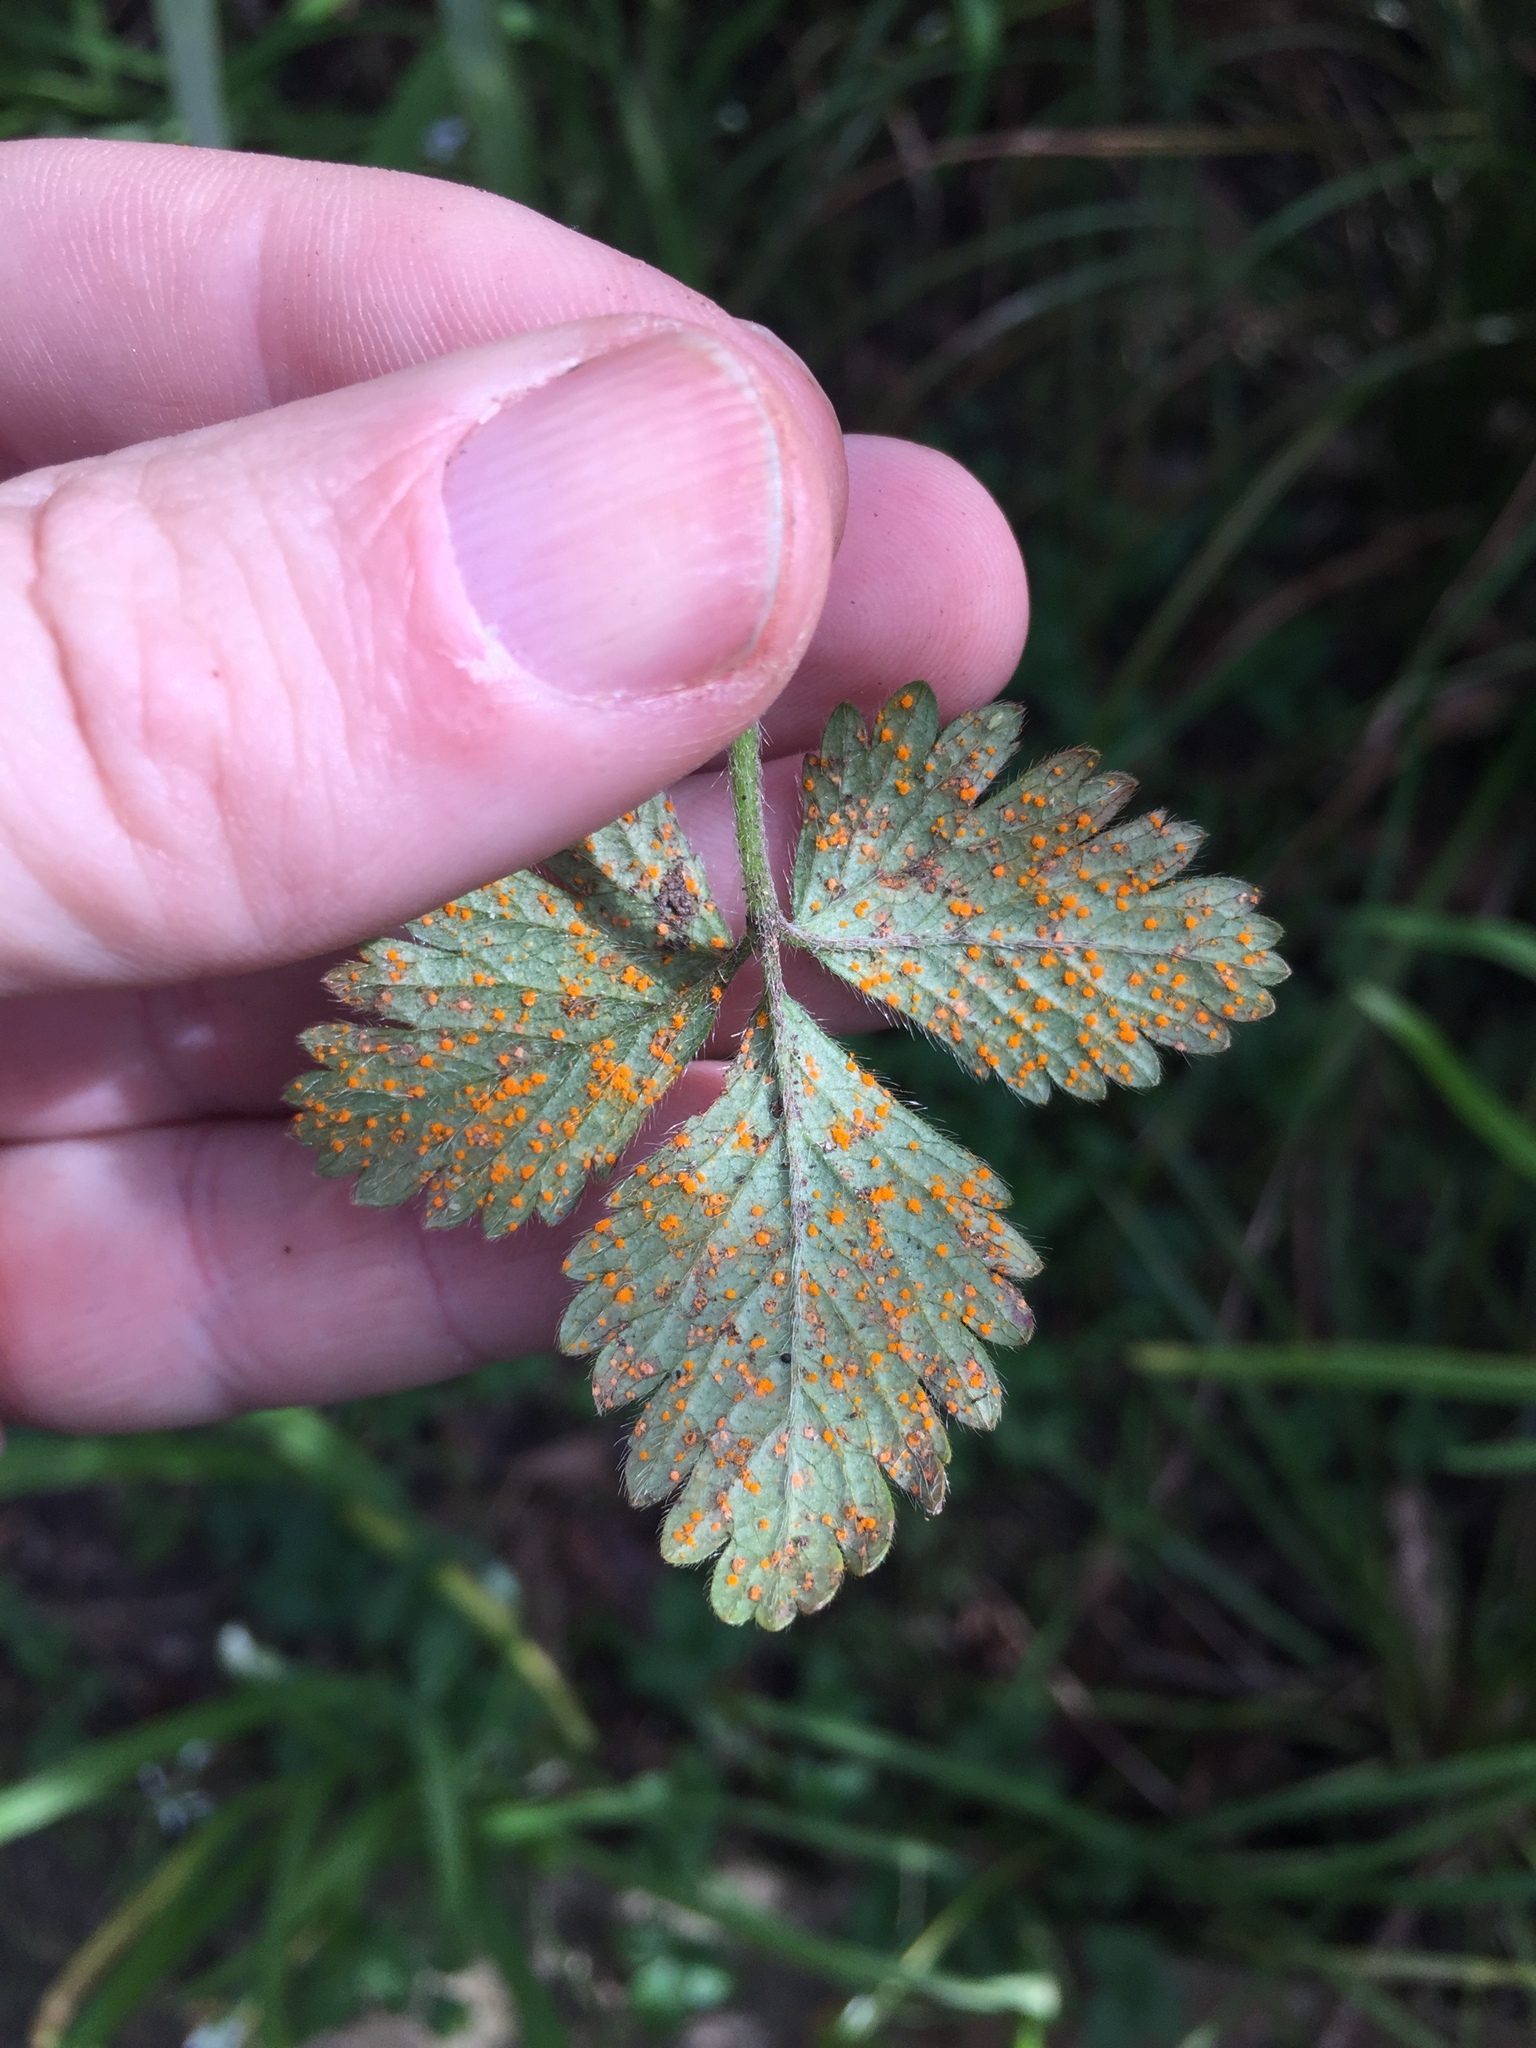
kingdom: Fungi
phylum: Basidiomycota
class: Pucciniomycetes
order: Pucciniales
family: Phragmidiaceae
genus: Phragmidium
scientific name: Phragmidium mexicanum
